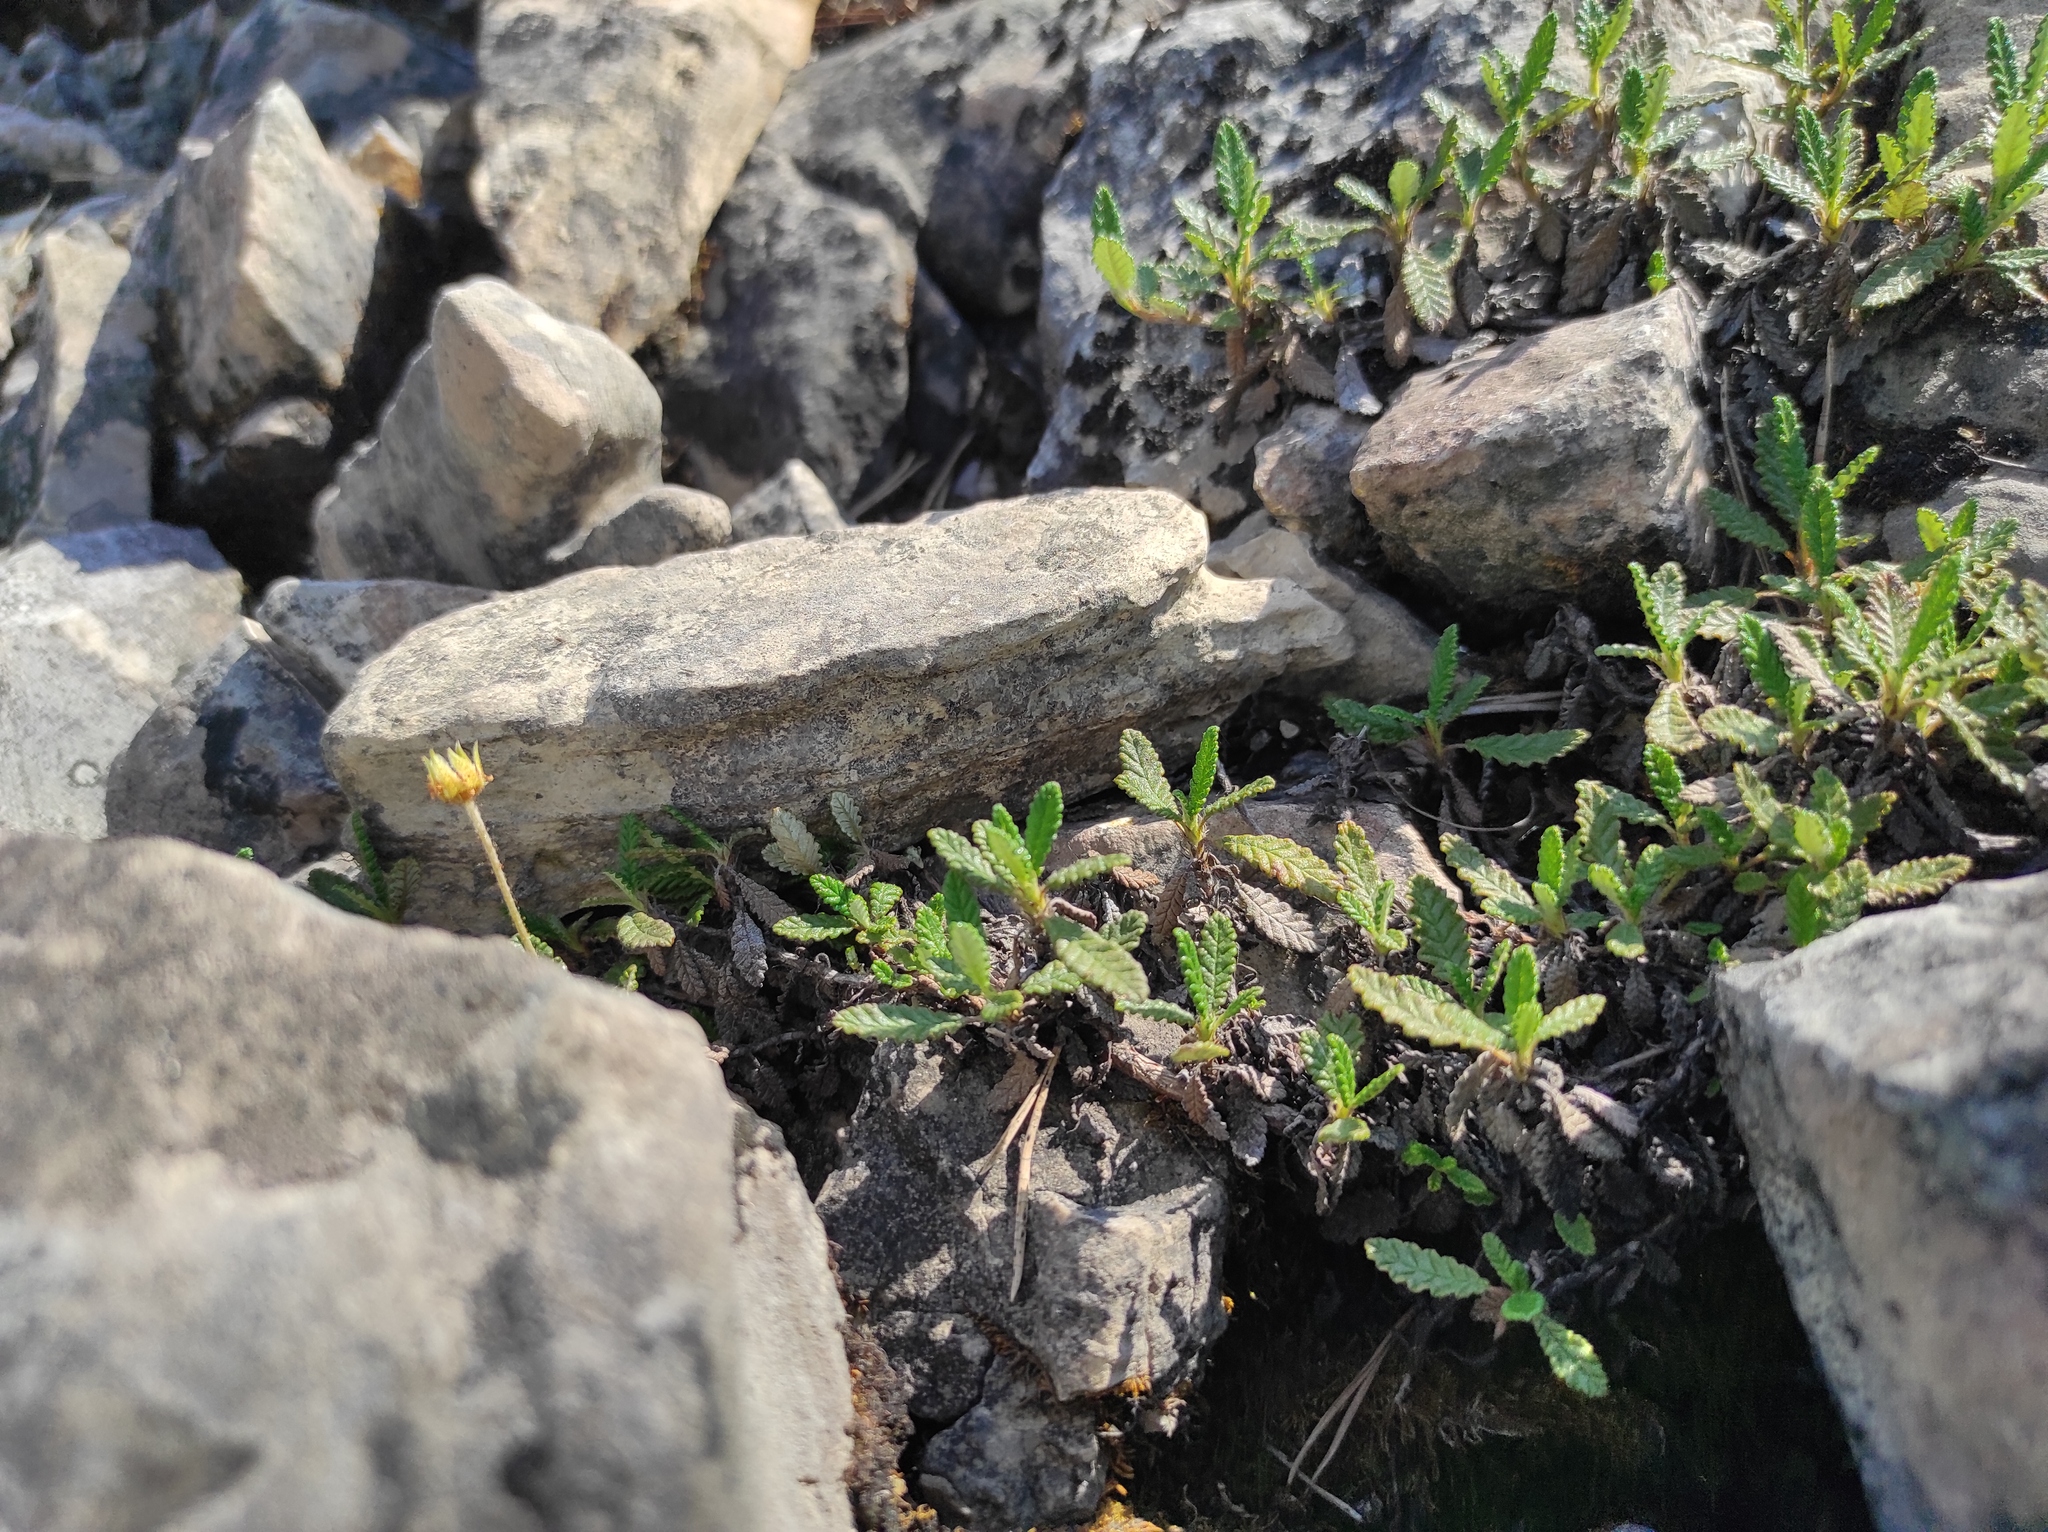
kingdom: Plantae
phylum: Tracheophyta
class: Magnoliopsida
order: Rosales
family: Rosaceae
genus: Dryas
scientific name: Dryas octopetala
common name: Eight-petal mountain-avens
